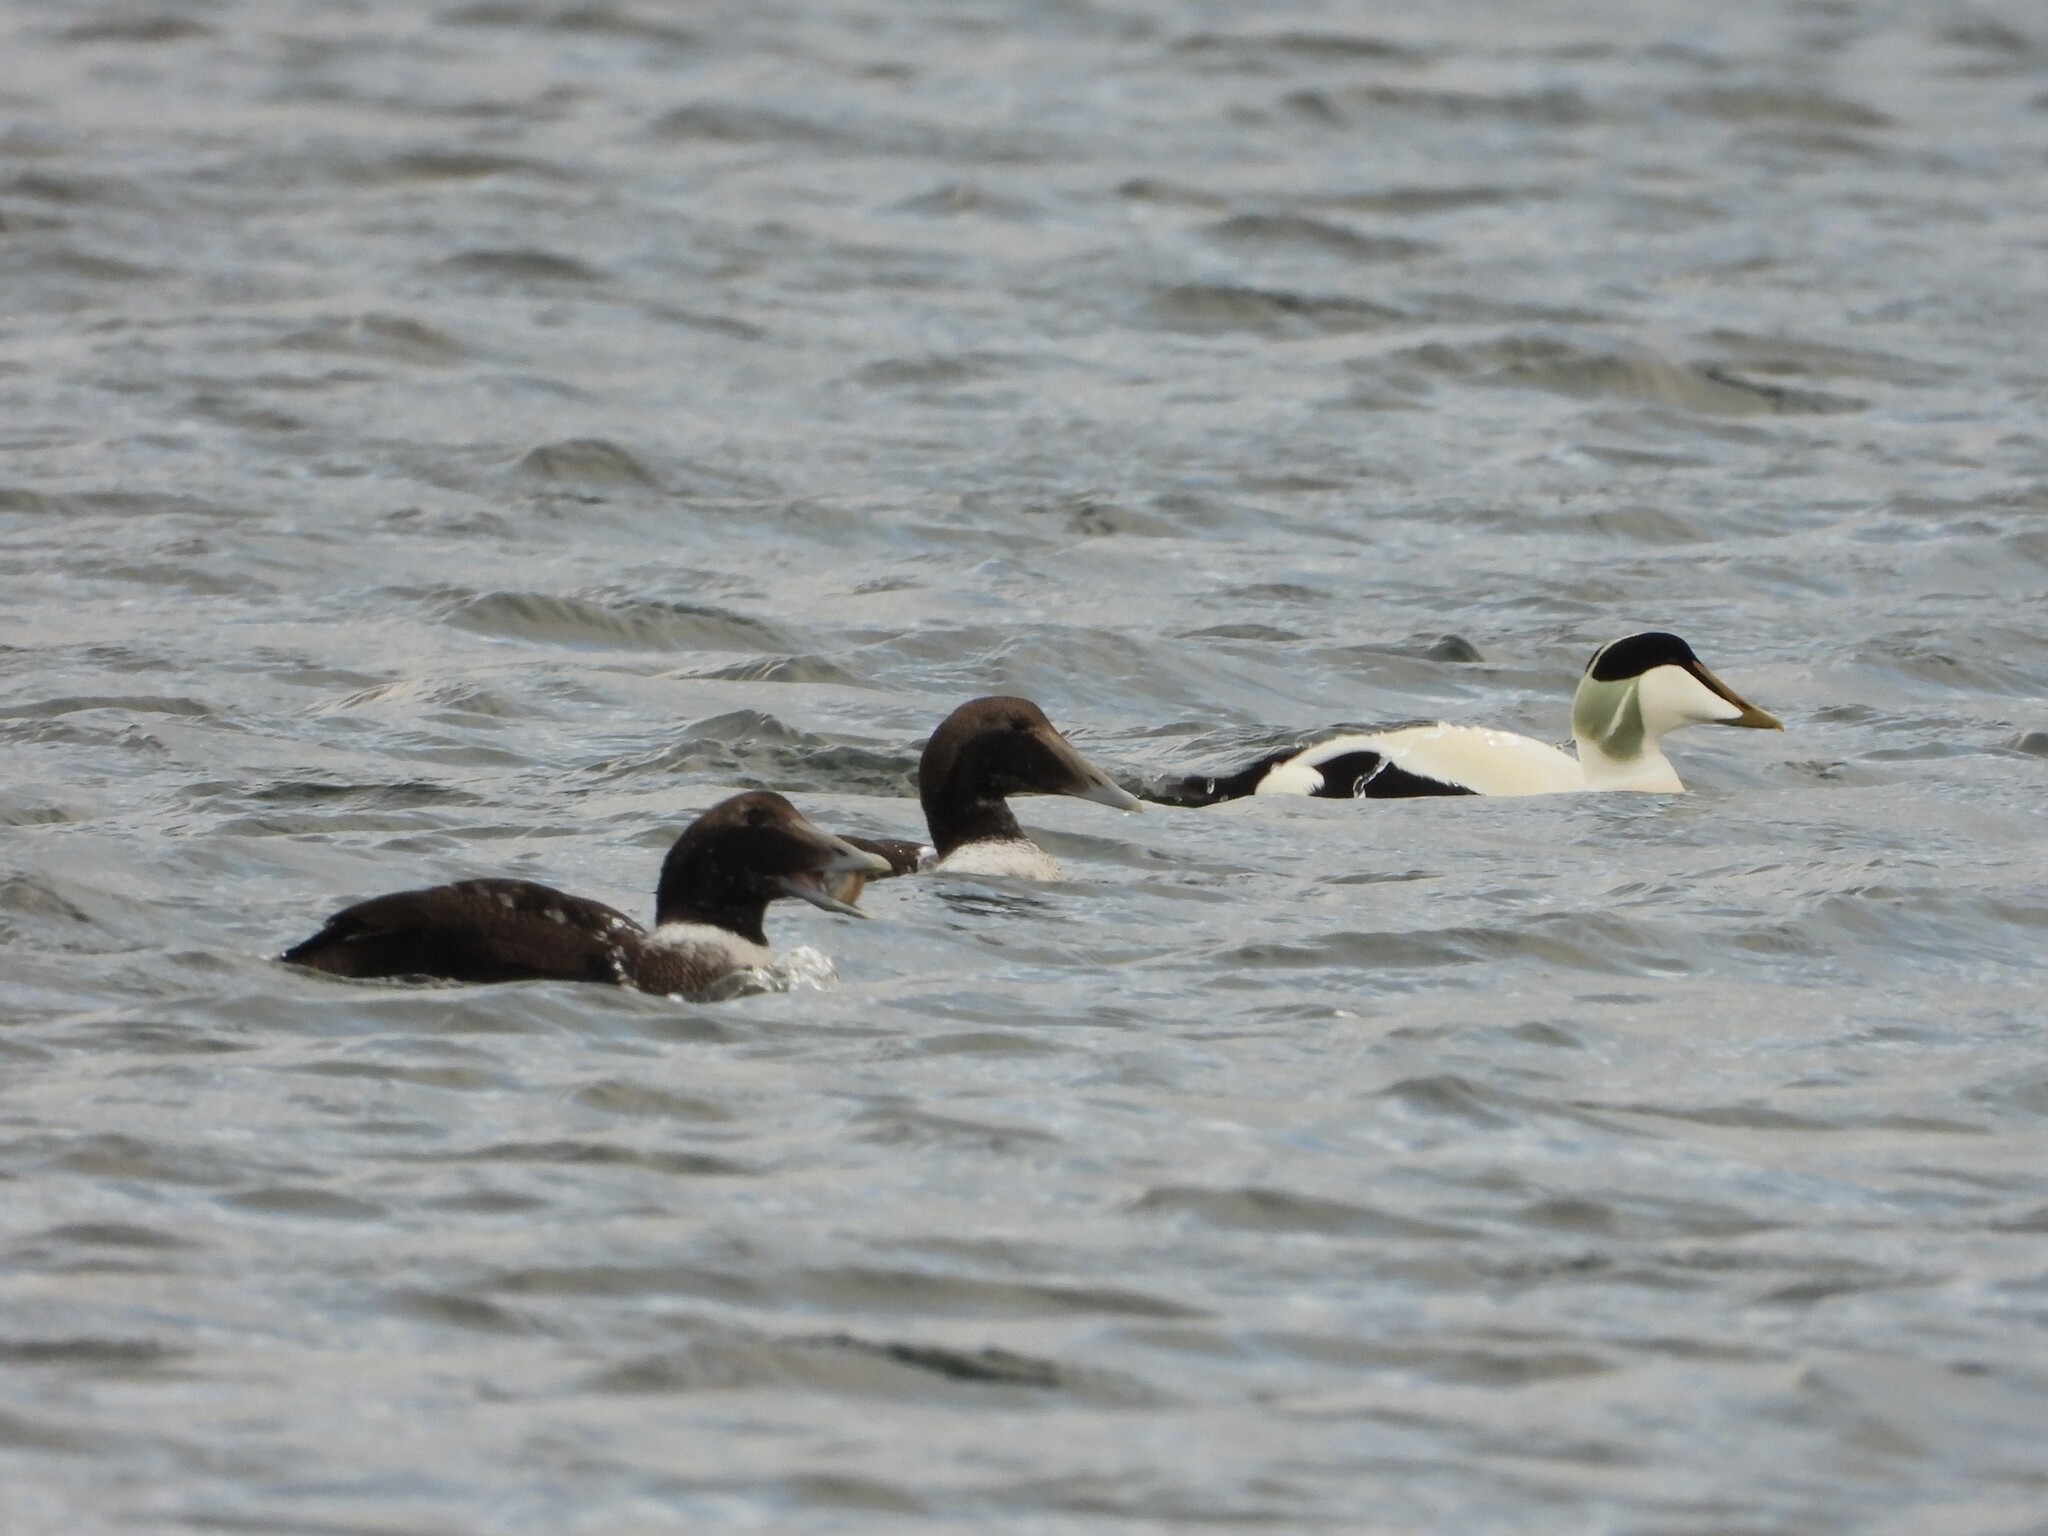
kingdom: Animalia
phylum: Chordata
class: Aves
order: Anseriformes
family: Anatidae
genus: Somateria
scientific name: Somateria mollissima
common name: Common eider
